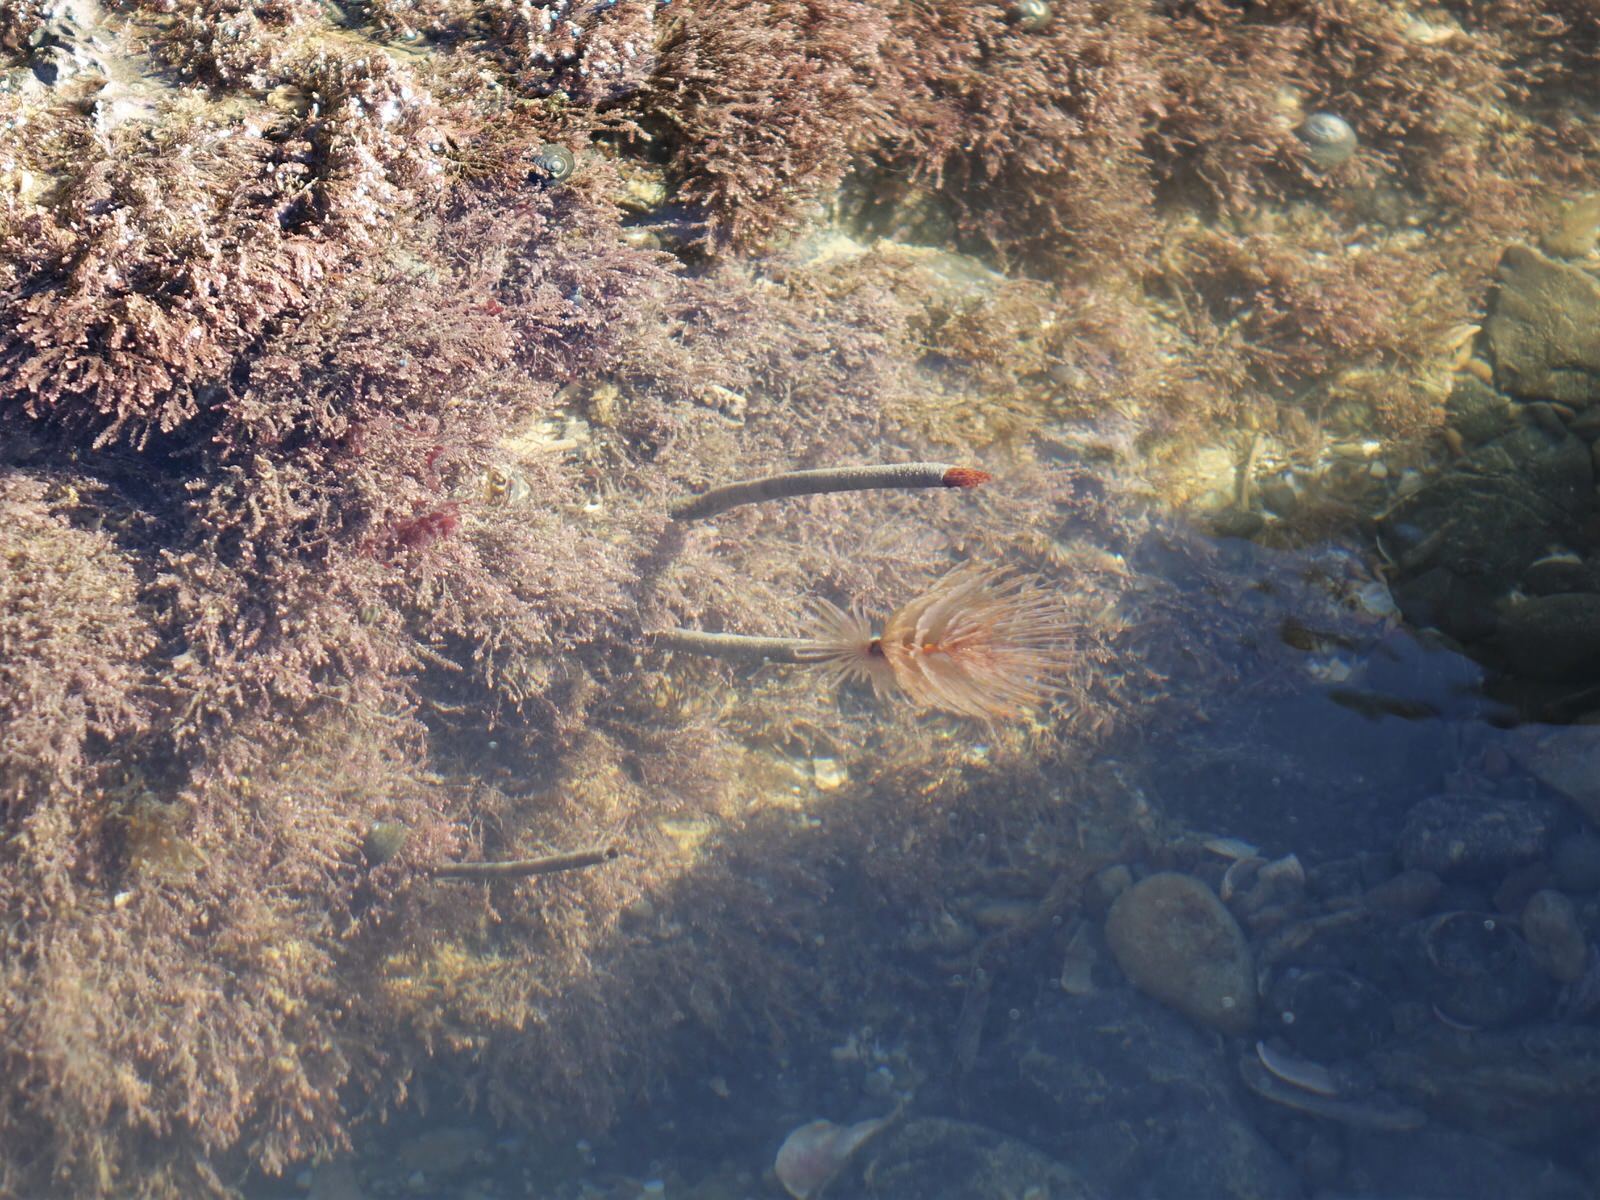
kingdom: Animalia
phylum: Annelida
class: Polychaeta
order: Sabellida
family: Sabellidae
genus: Sabella
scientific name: Sabella spallanzanii
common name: Feather duster worm
